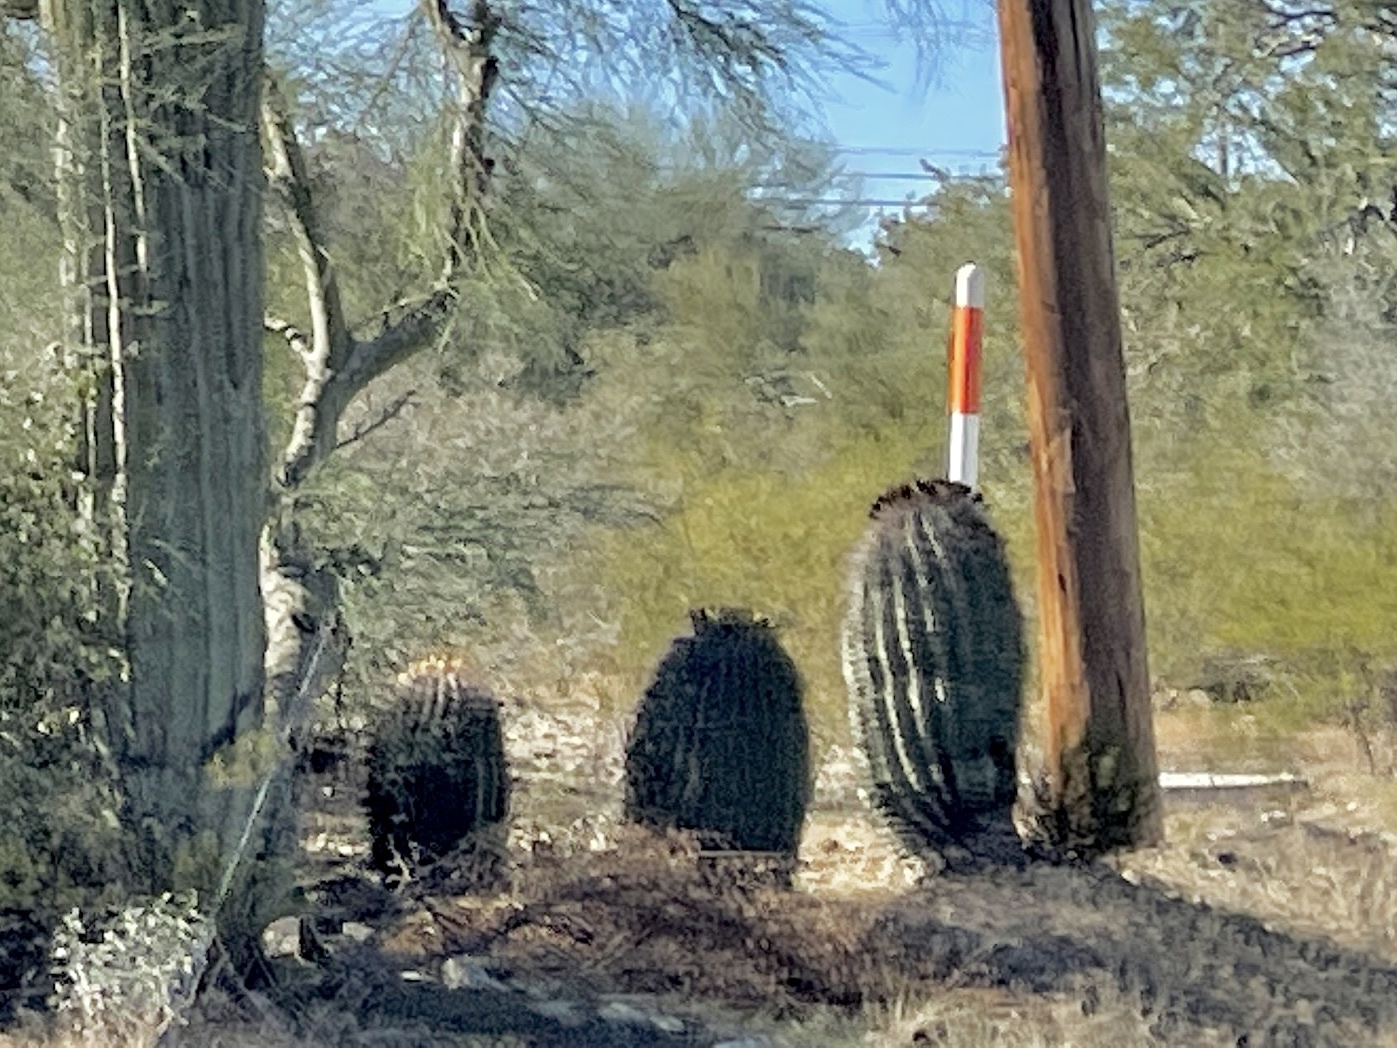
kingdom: Plantae
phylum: Tracheophyta
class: Magnoliopsida
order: Caryophyllales
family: Cactaceae
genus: Ferocactus
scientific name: Ferocactus wislizeni
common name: Candy barrel cactus
